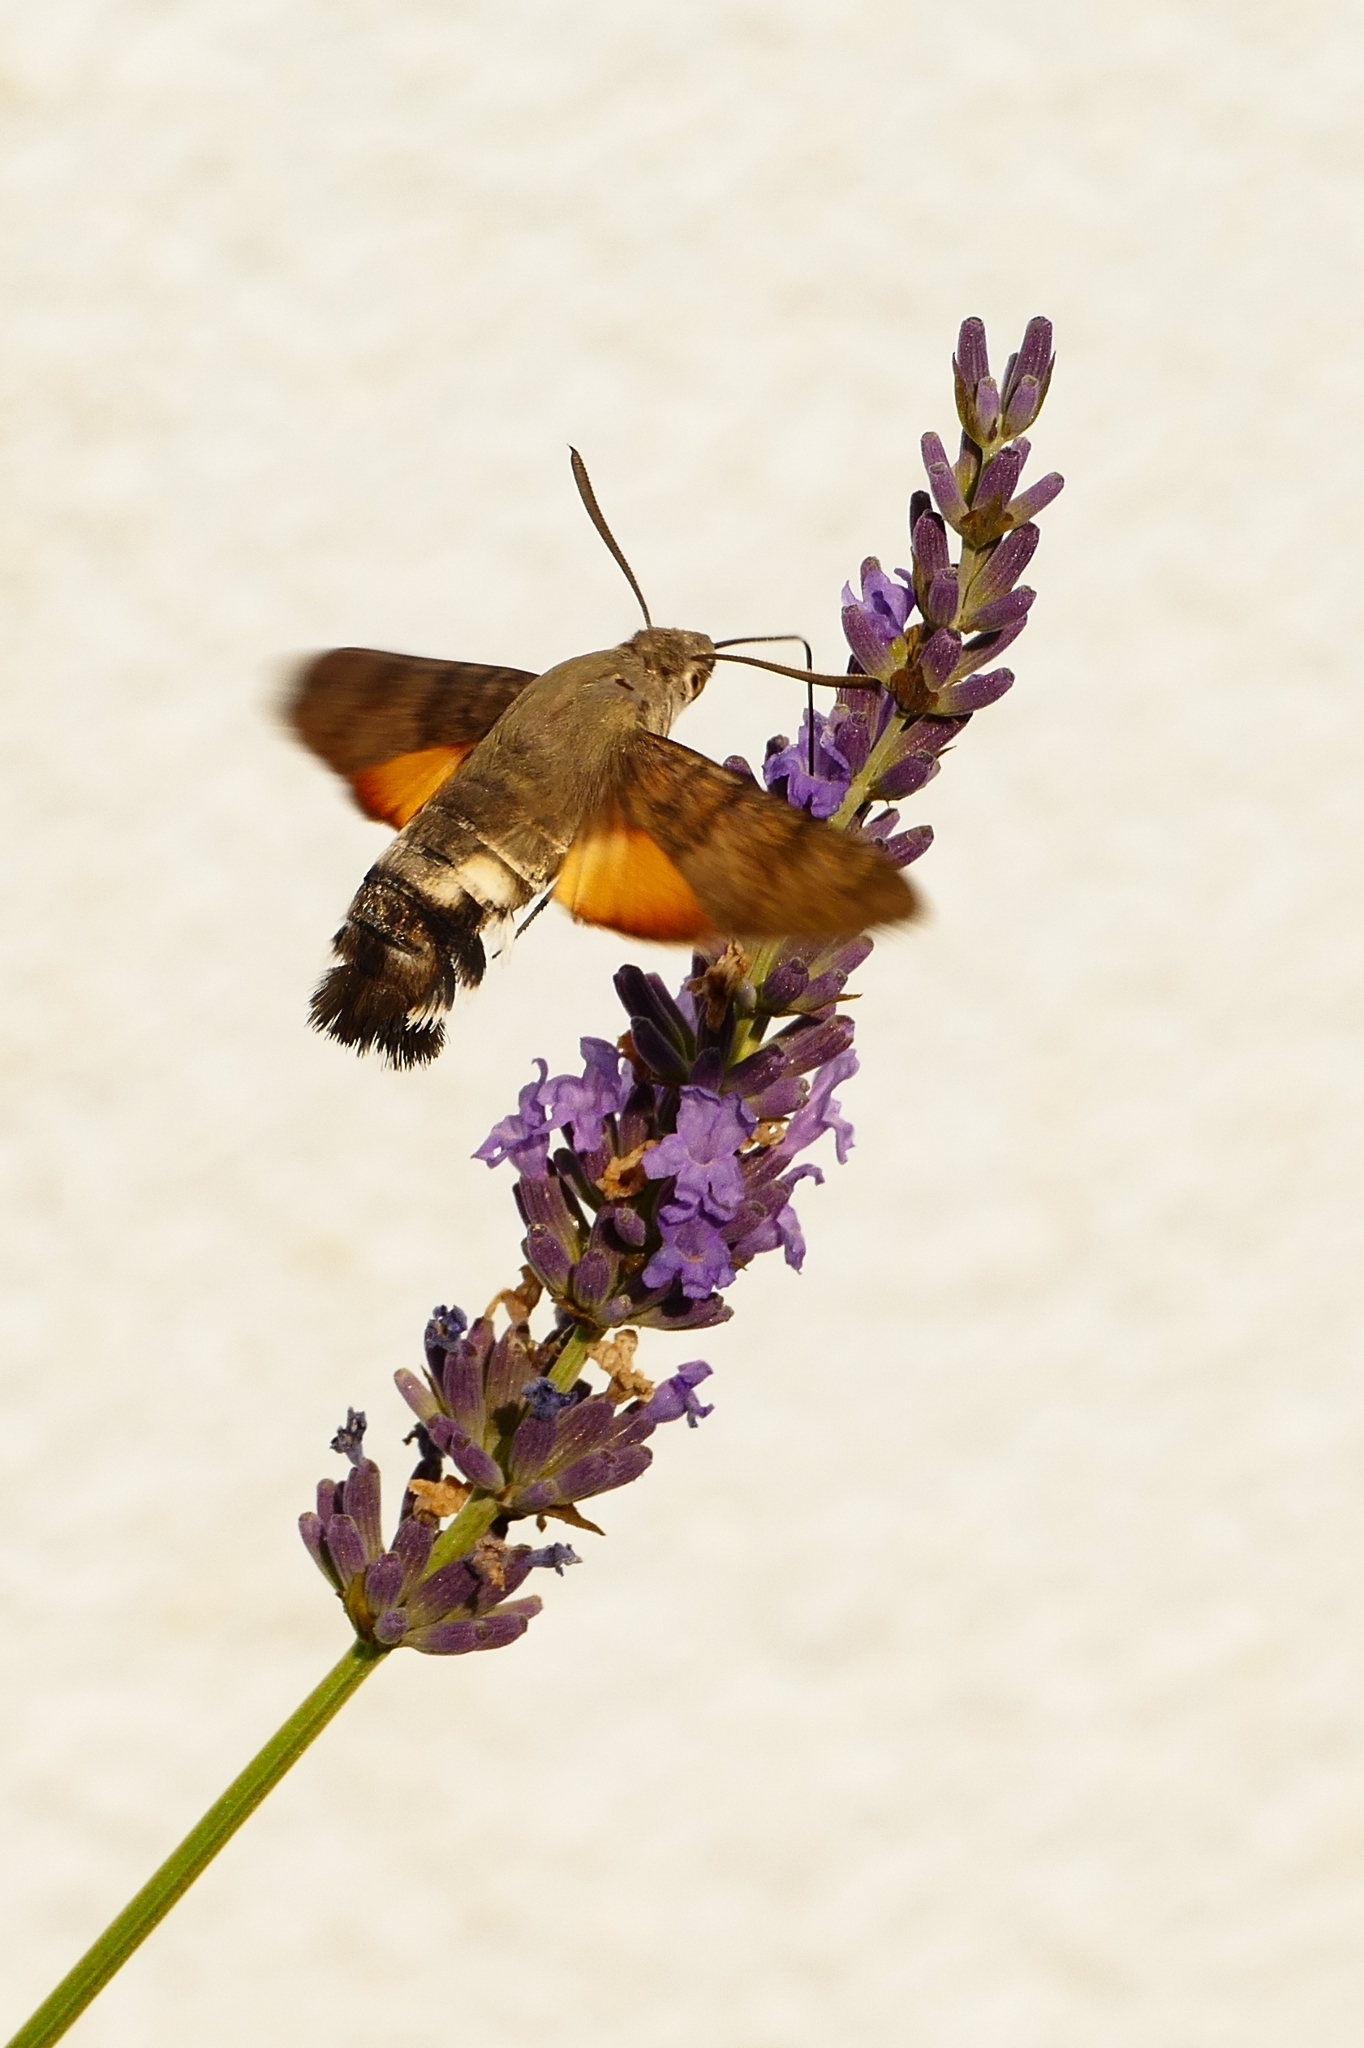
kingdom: Animalia
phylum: Arthropoda
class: Insecta
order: Lepidoptera
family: Sphingidae
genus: Macroglossum
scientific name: Macroglossum stellatarum
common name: Humming-bird hawk-moth
